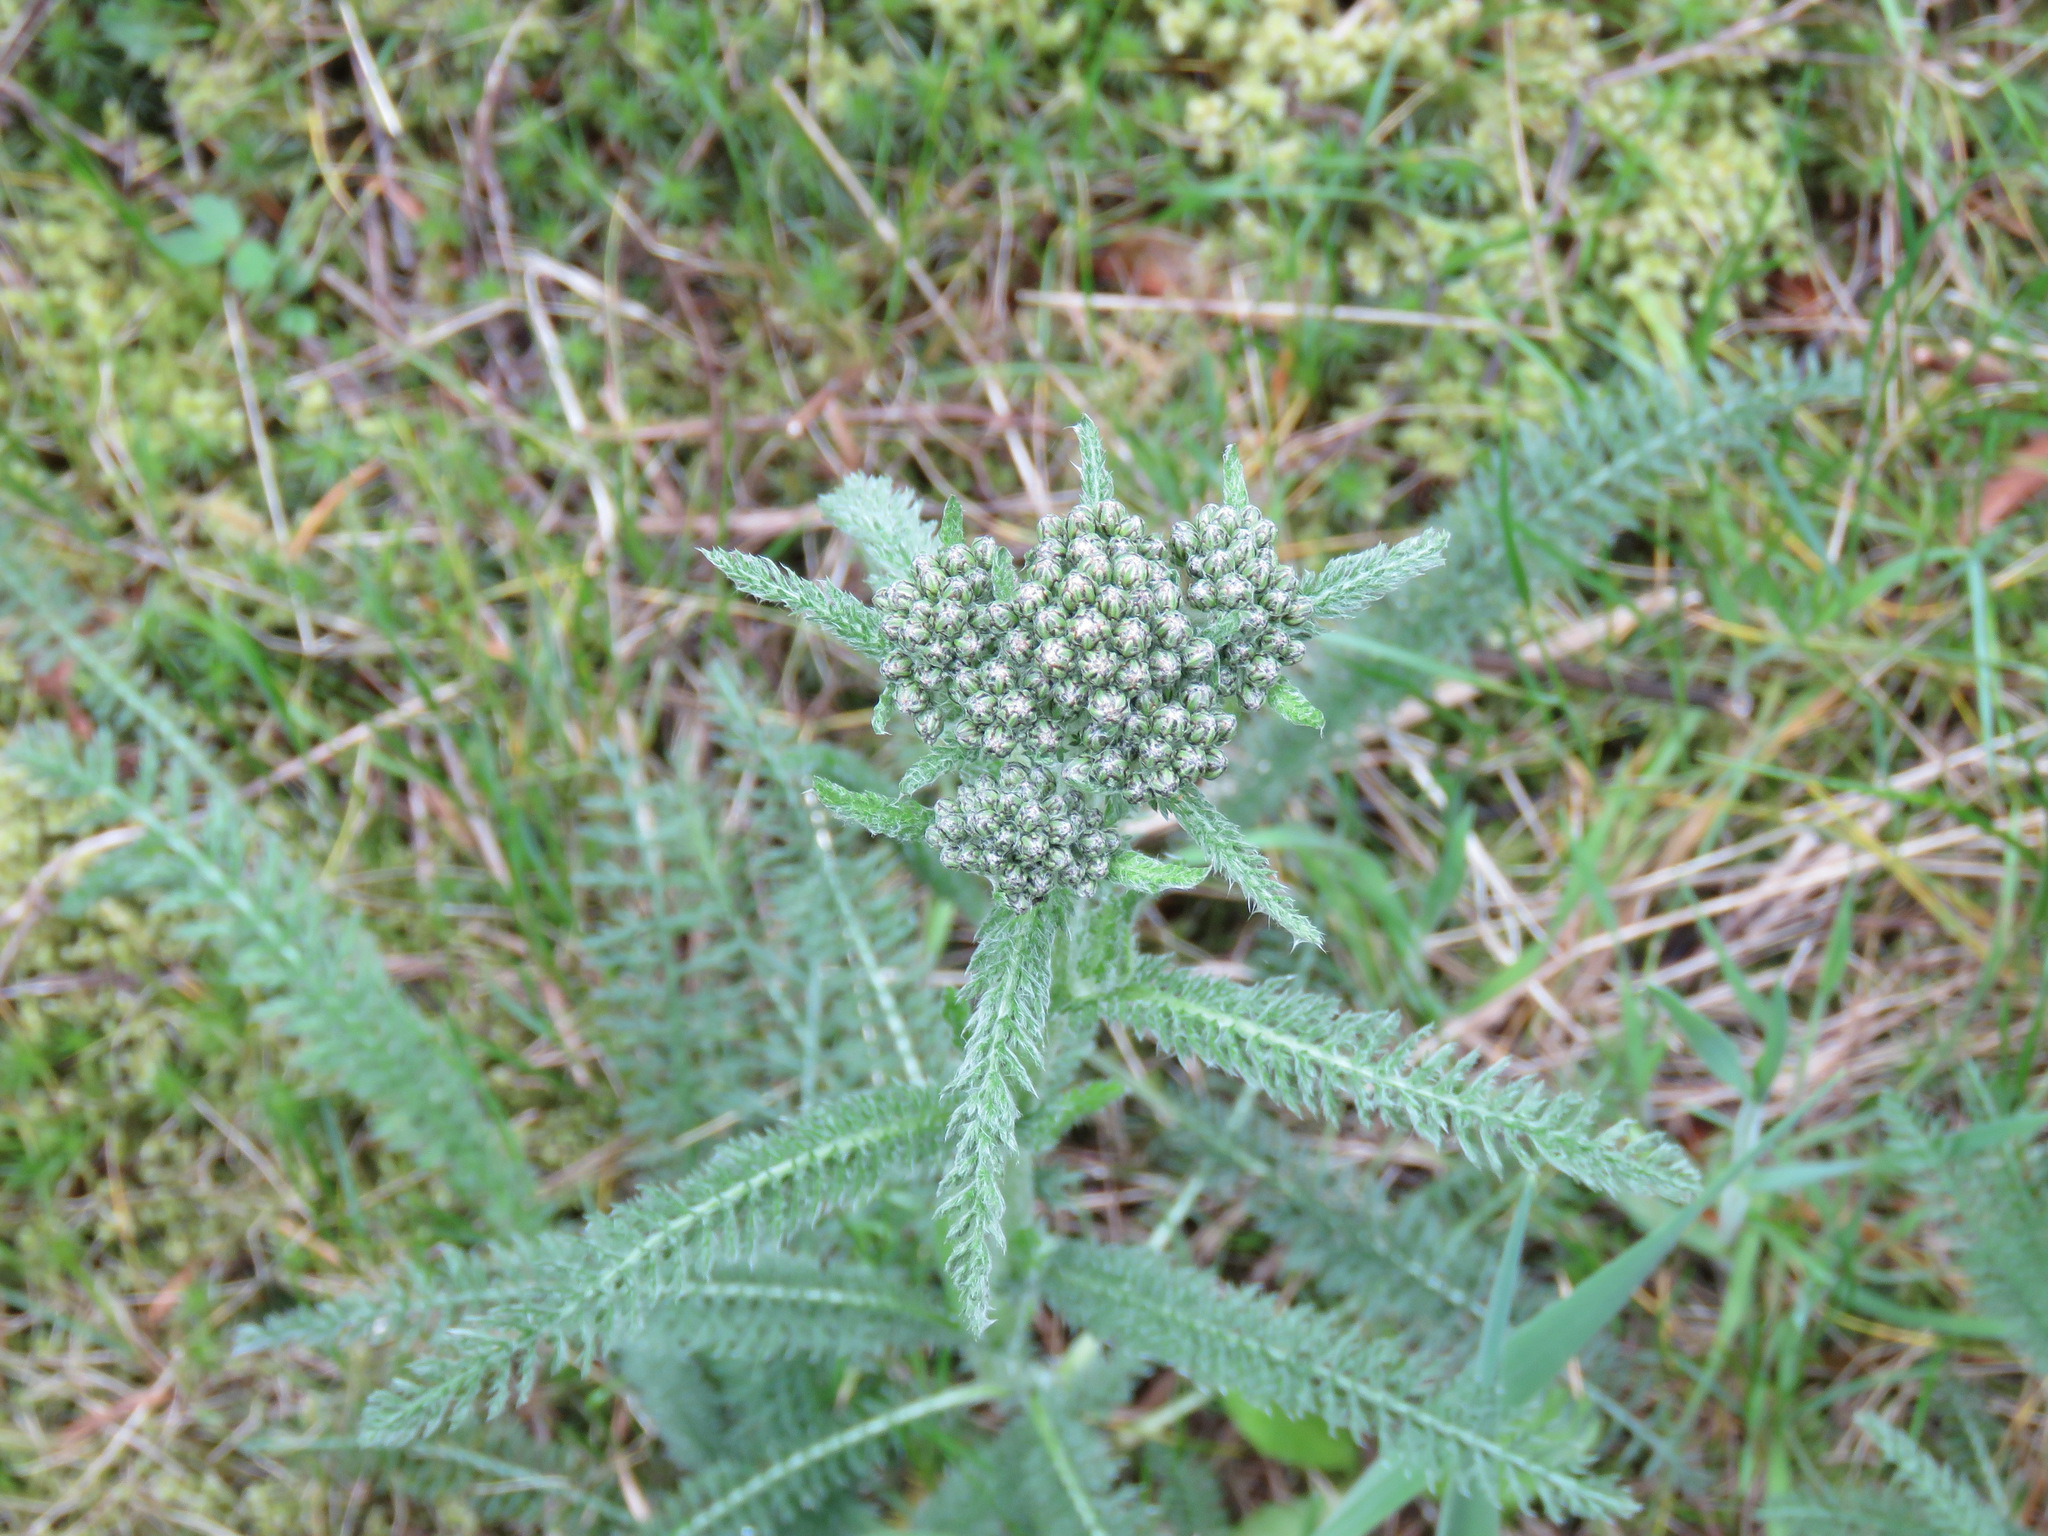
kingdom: Plantae
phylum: Tracheophyta
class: Magnoliopsida
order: Asterales
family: Asteraceae
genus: Achillea
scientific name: Achillea millefolium
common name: Yarrow
